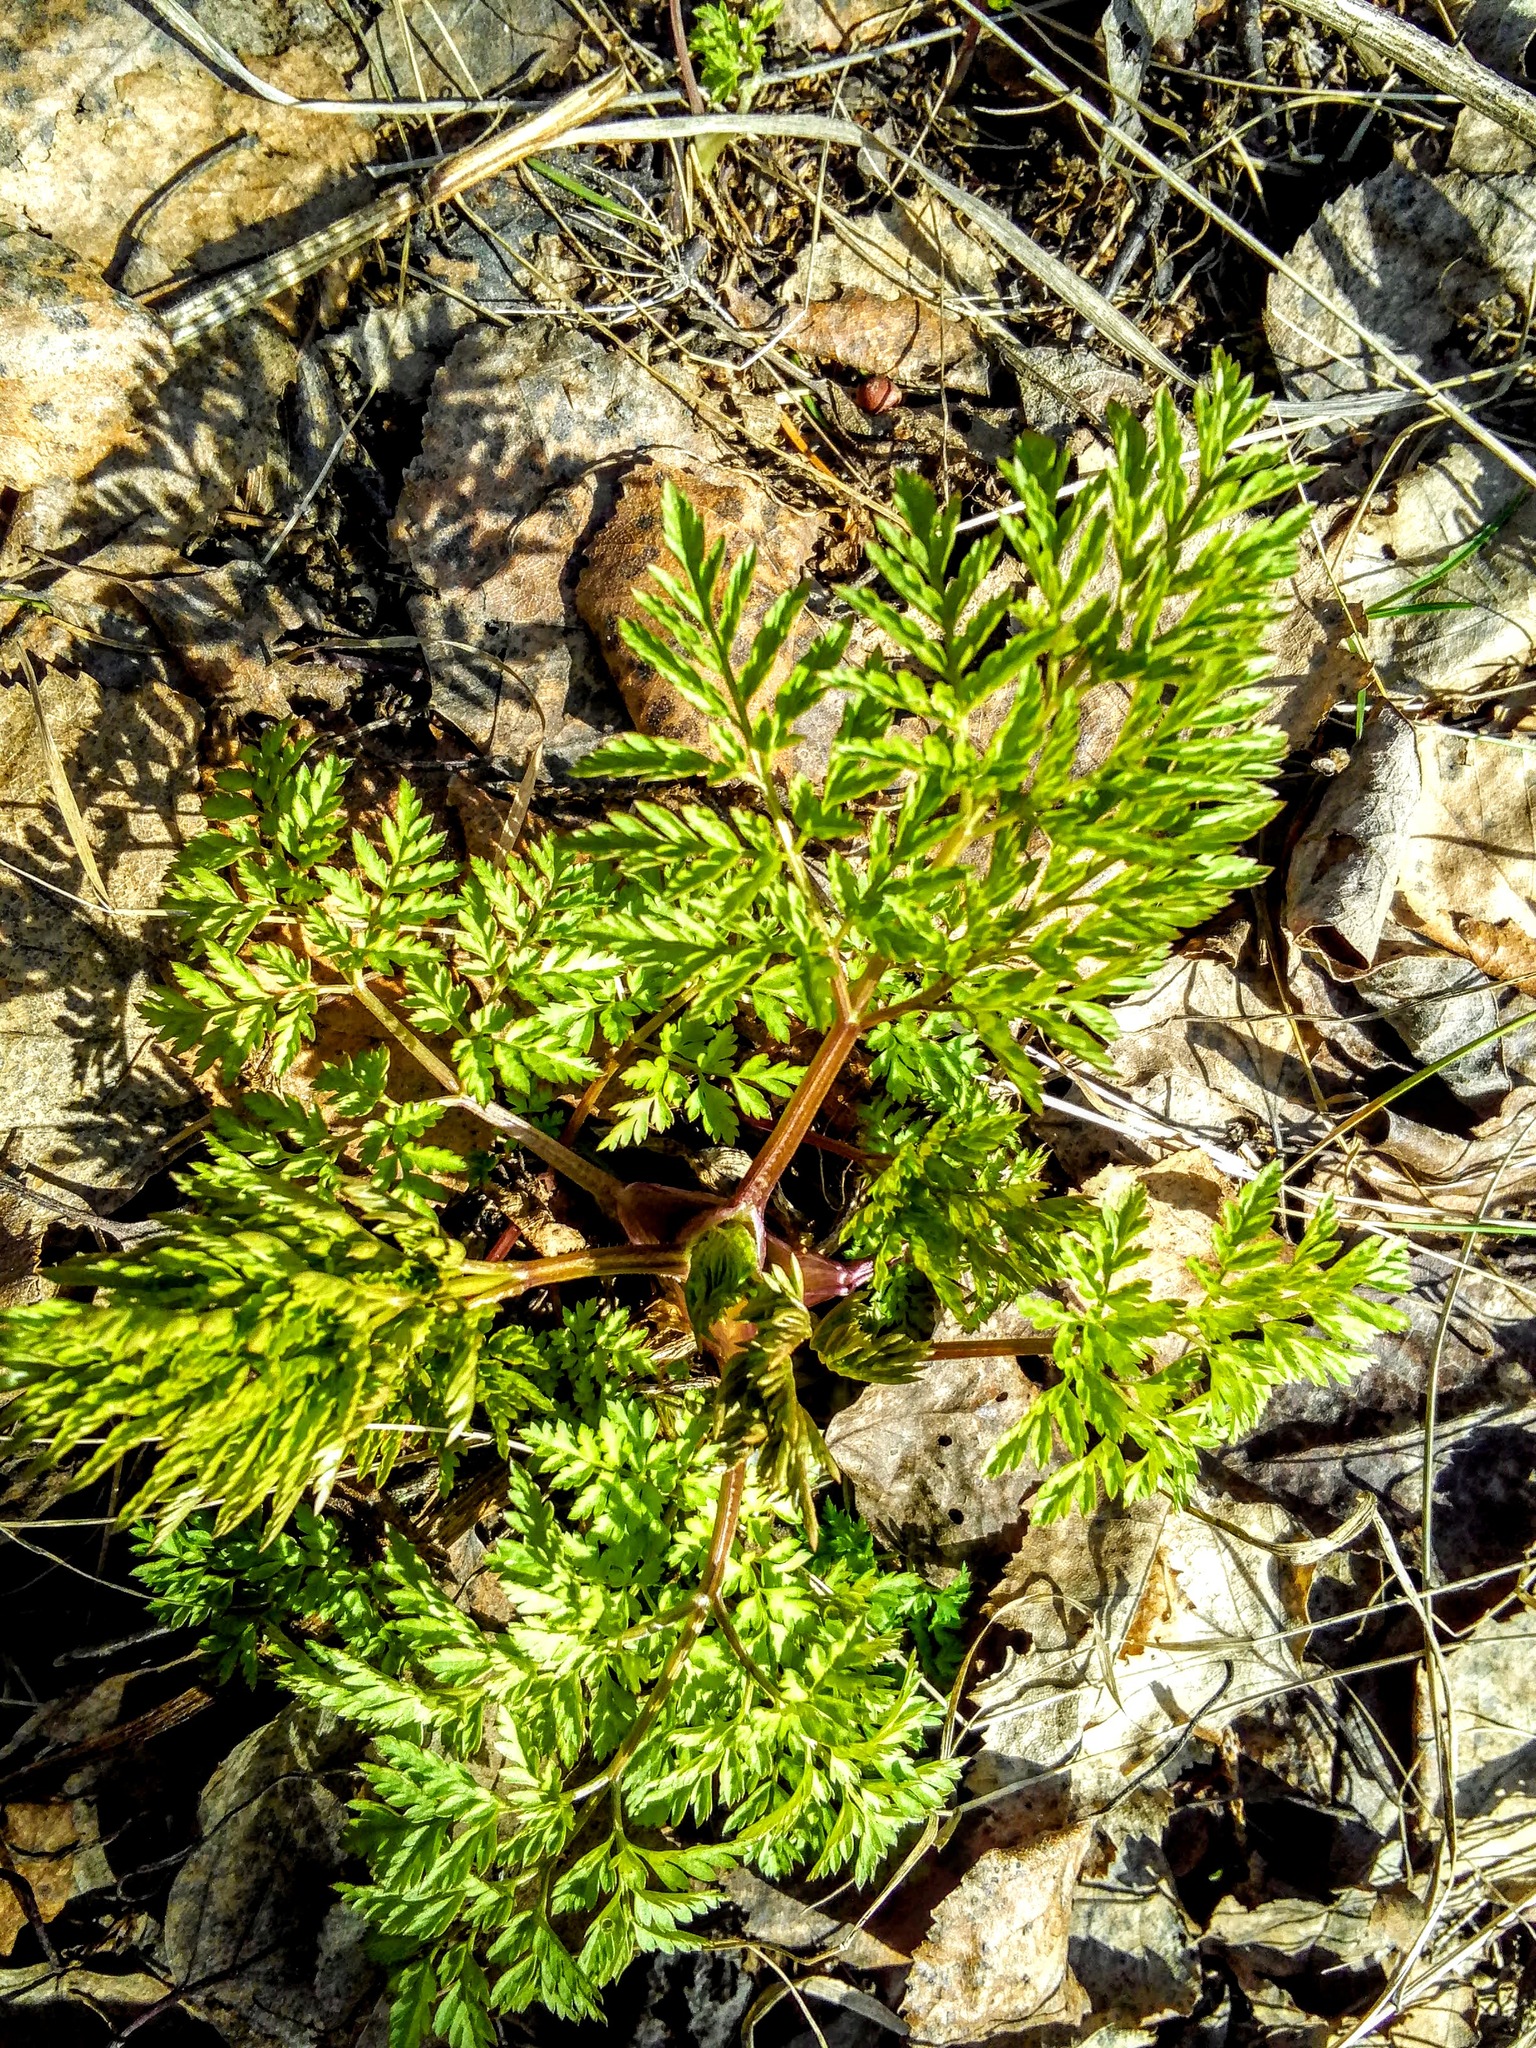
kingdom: Plantae
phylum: Tracheophyta
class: Magnoliopsida
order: Apiales
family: Apiaceae
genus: Anthriscus
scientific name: Anthriscus sylvestris
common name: Cow parsley
